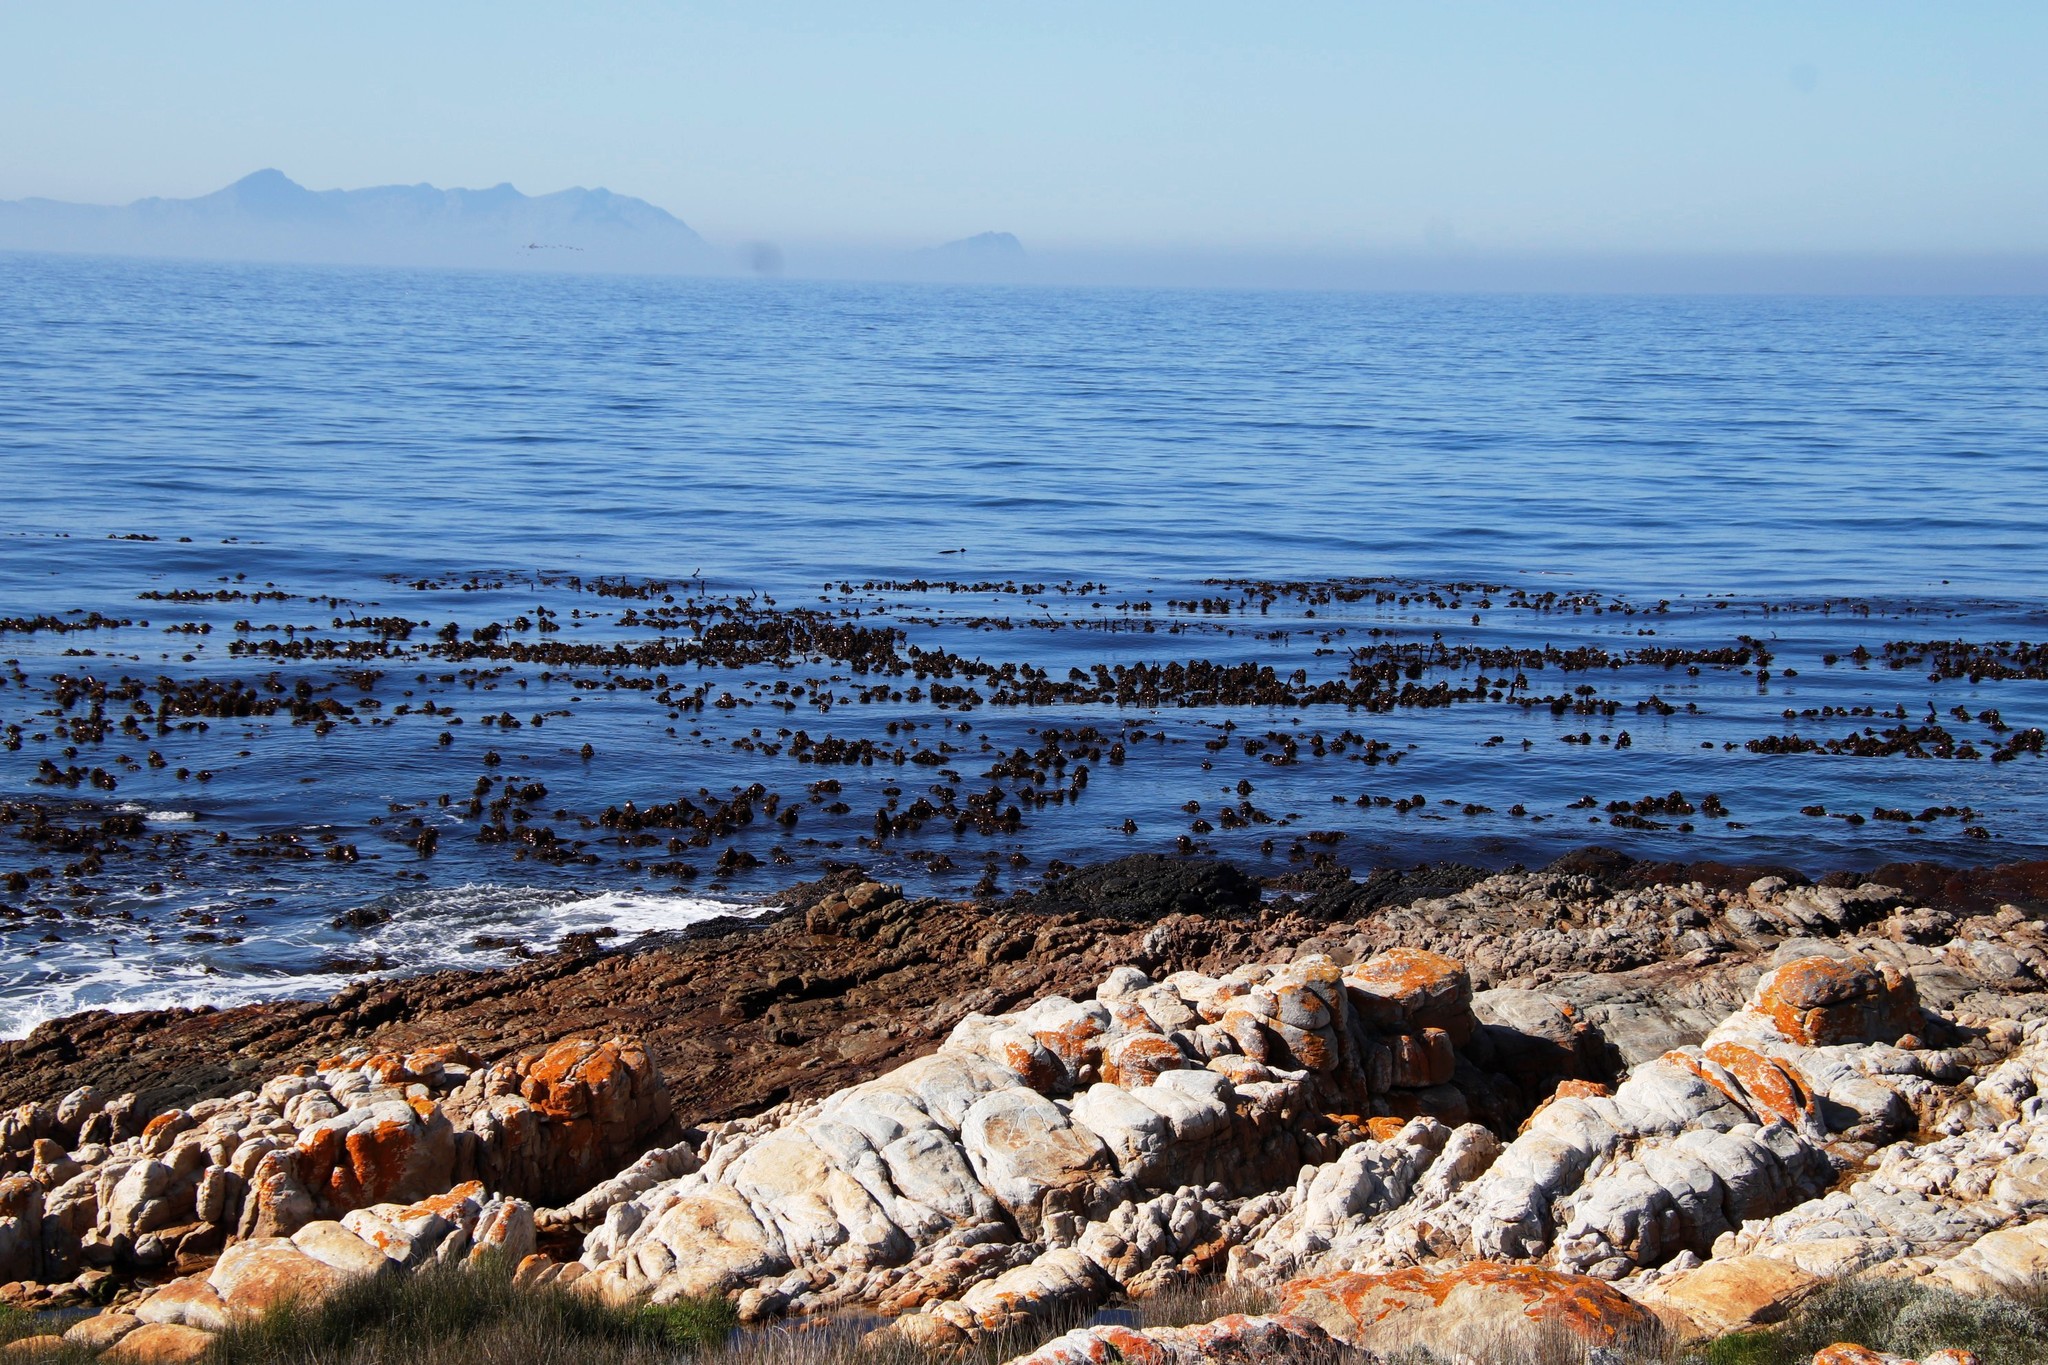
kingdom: Chromista
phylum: Ochrophyta
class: Phaeophyceae
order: Laminariales
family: Lessoniaceae
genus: Ecklonia
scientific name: Ecklonia
